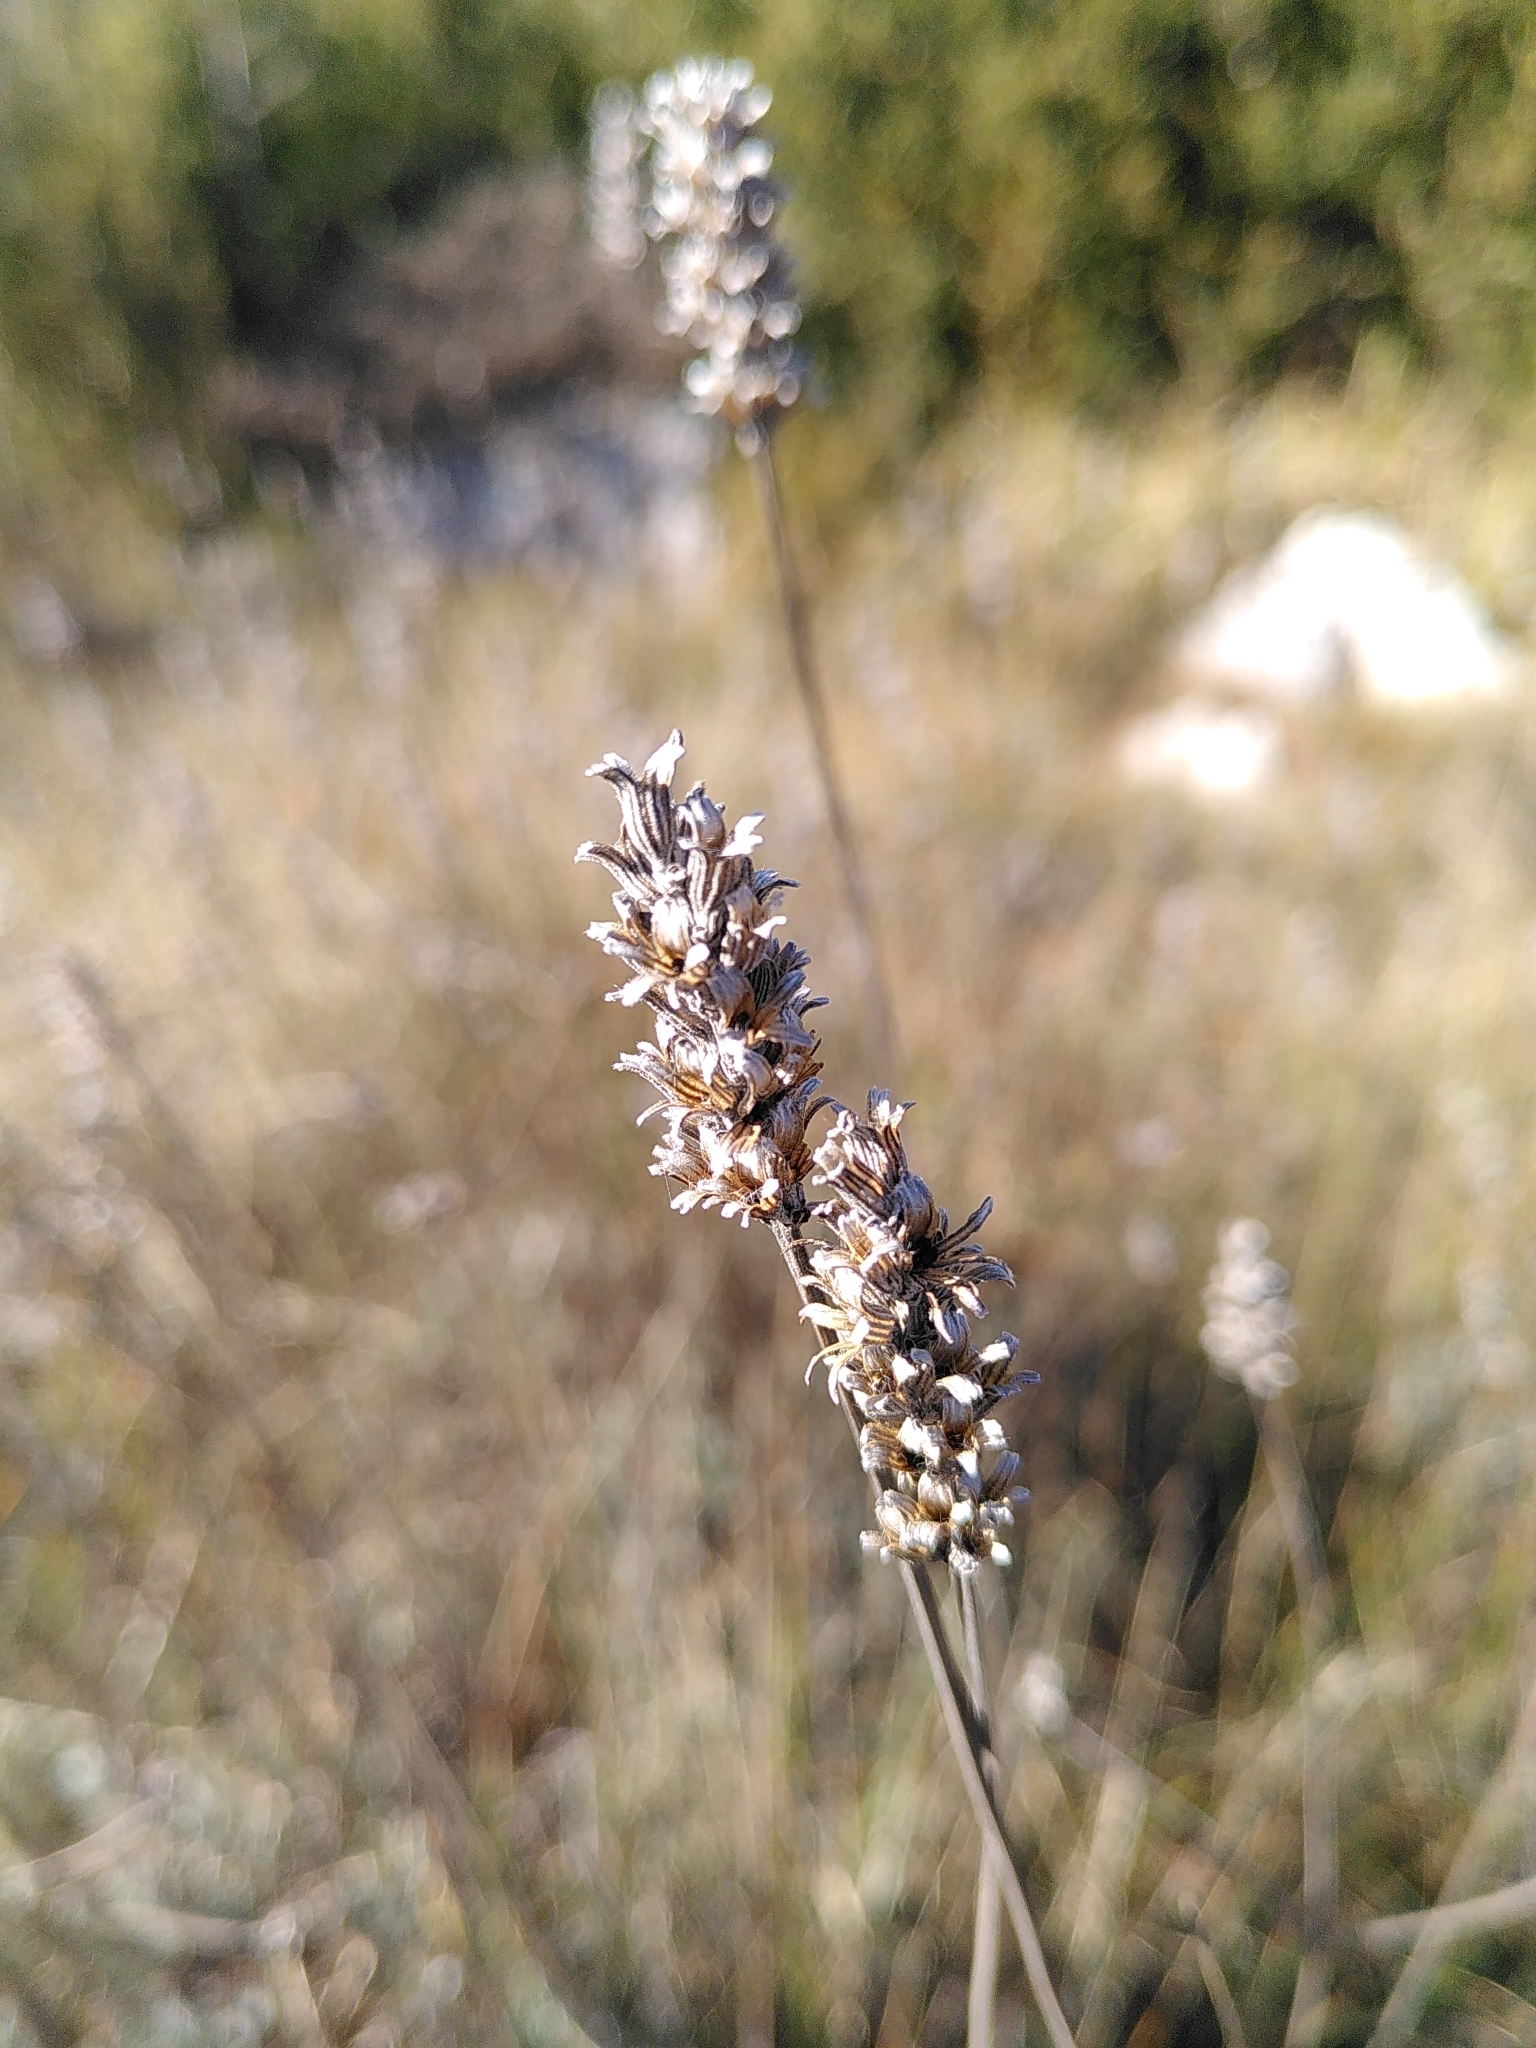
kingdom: Plantae
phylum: Tracheophyta
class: Magnoliopsida
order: Lamiales
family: Lamiaceae
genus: Lavandula
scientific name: Lavandula angustifolia
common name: Garden lavender
